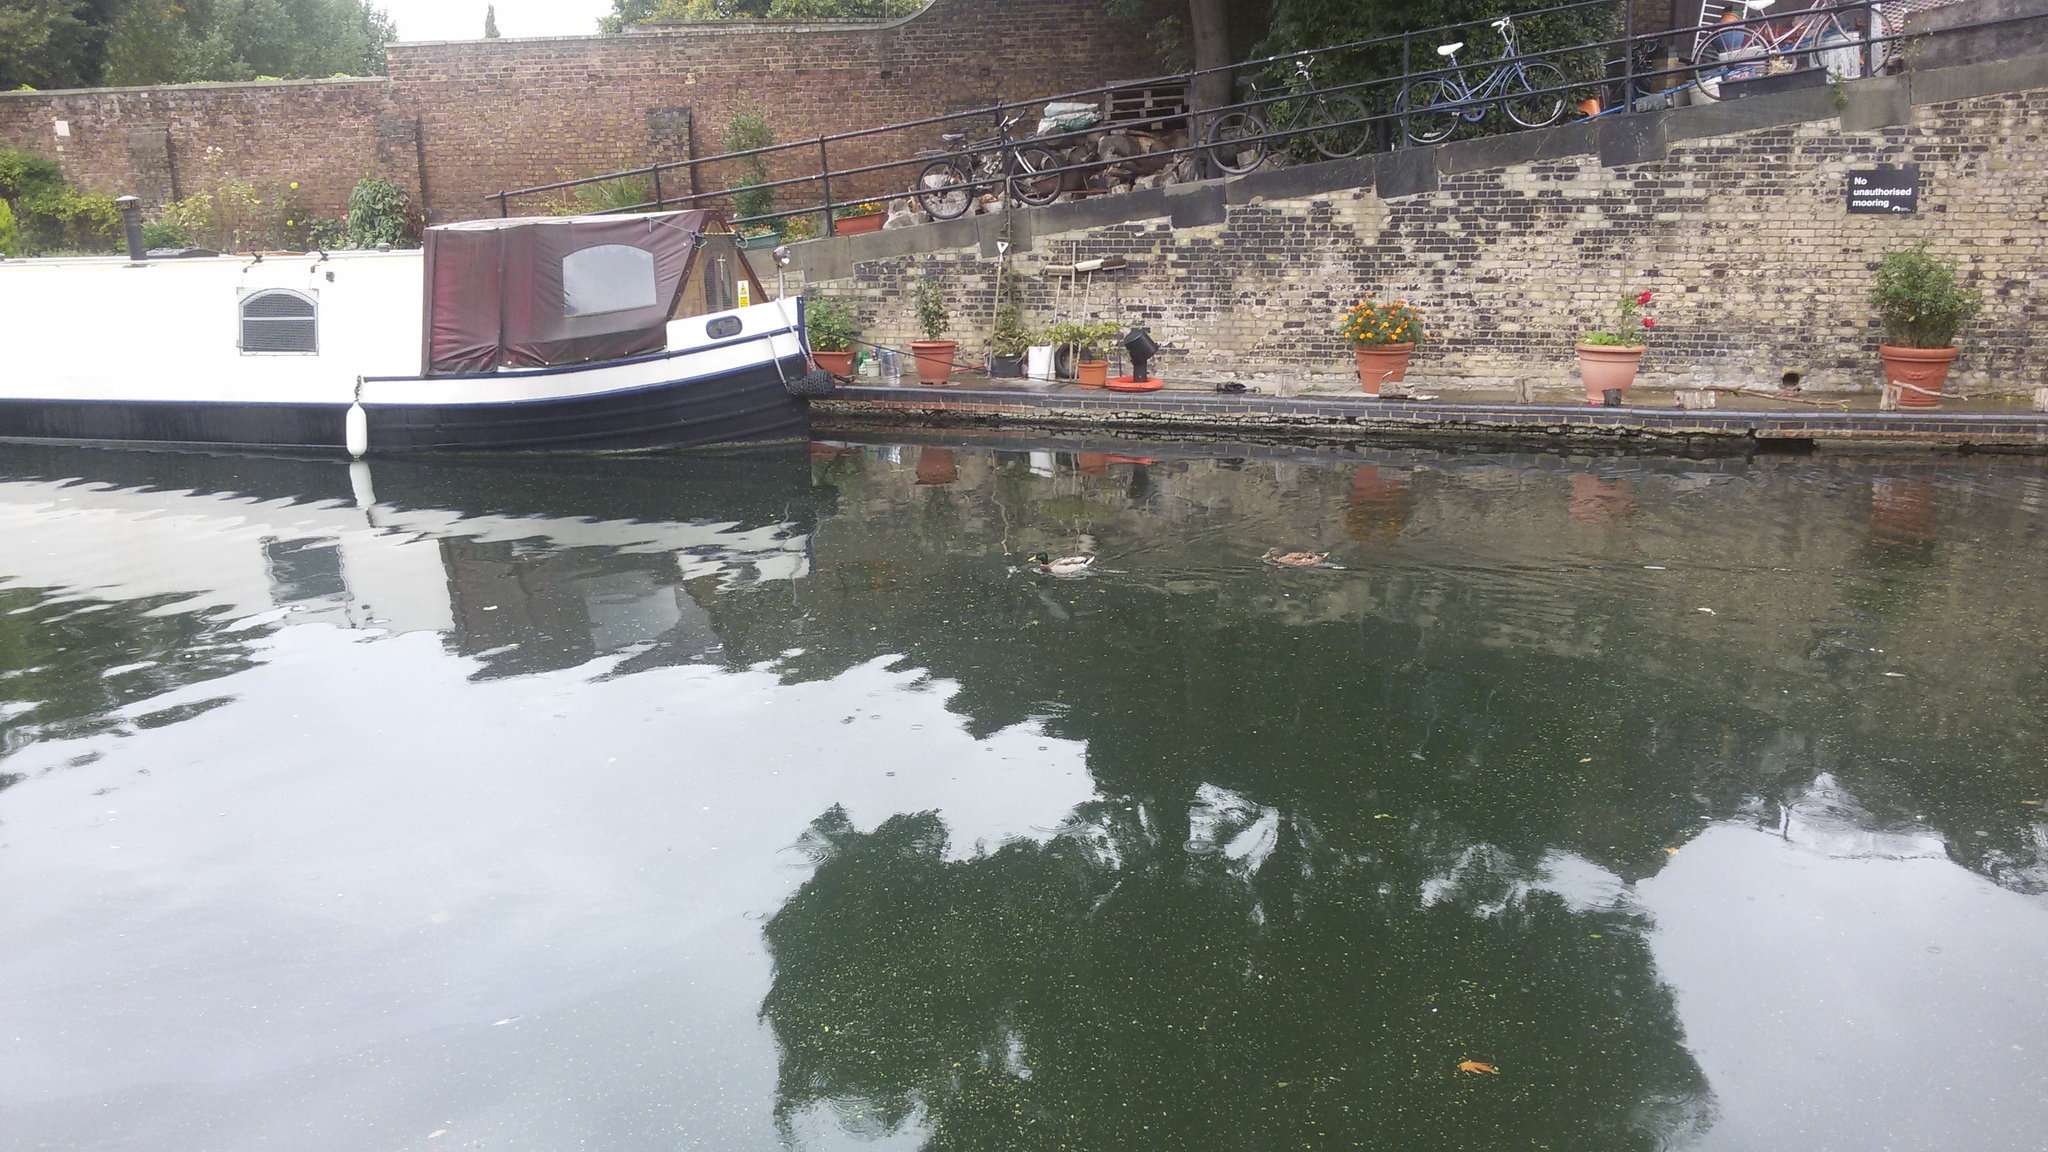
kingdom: Animalia
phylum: Chordata
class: Aves
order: Anseriformes
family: Anatidae
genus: Anas
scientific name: Anas platyrhynchos
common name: Mallard
